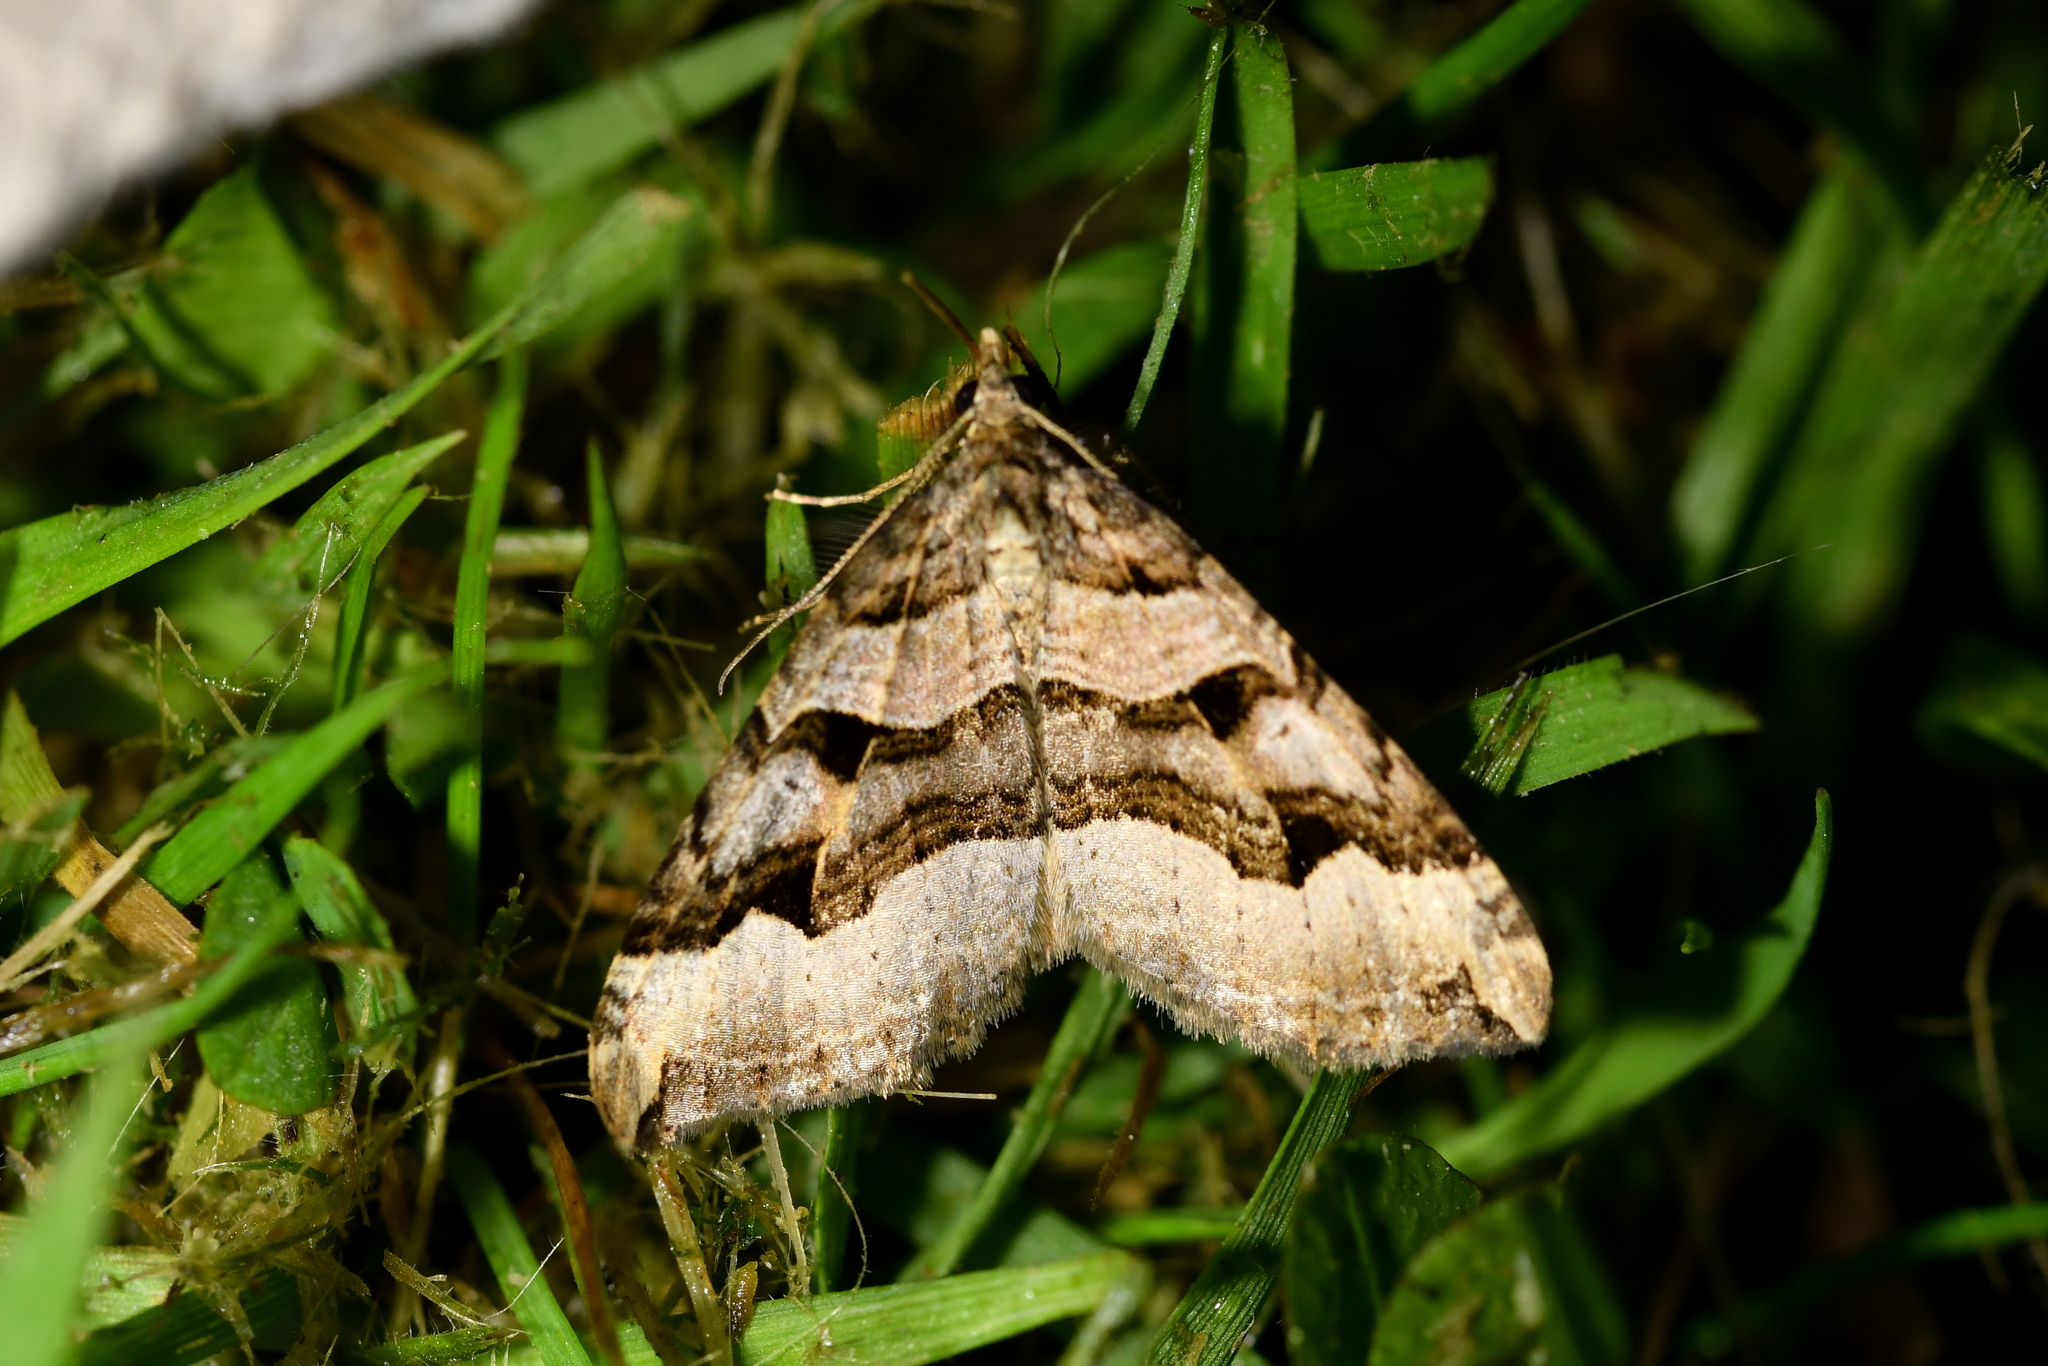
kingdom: Animalia
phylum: Arthropoda
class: Insecta
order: Lepidoptera
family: Geometridae
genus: Xanthorhoe
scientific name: Xanthorhoe semifissata
